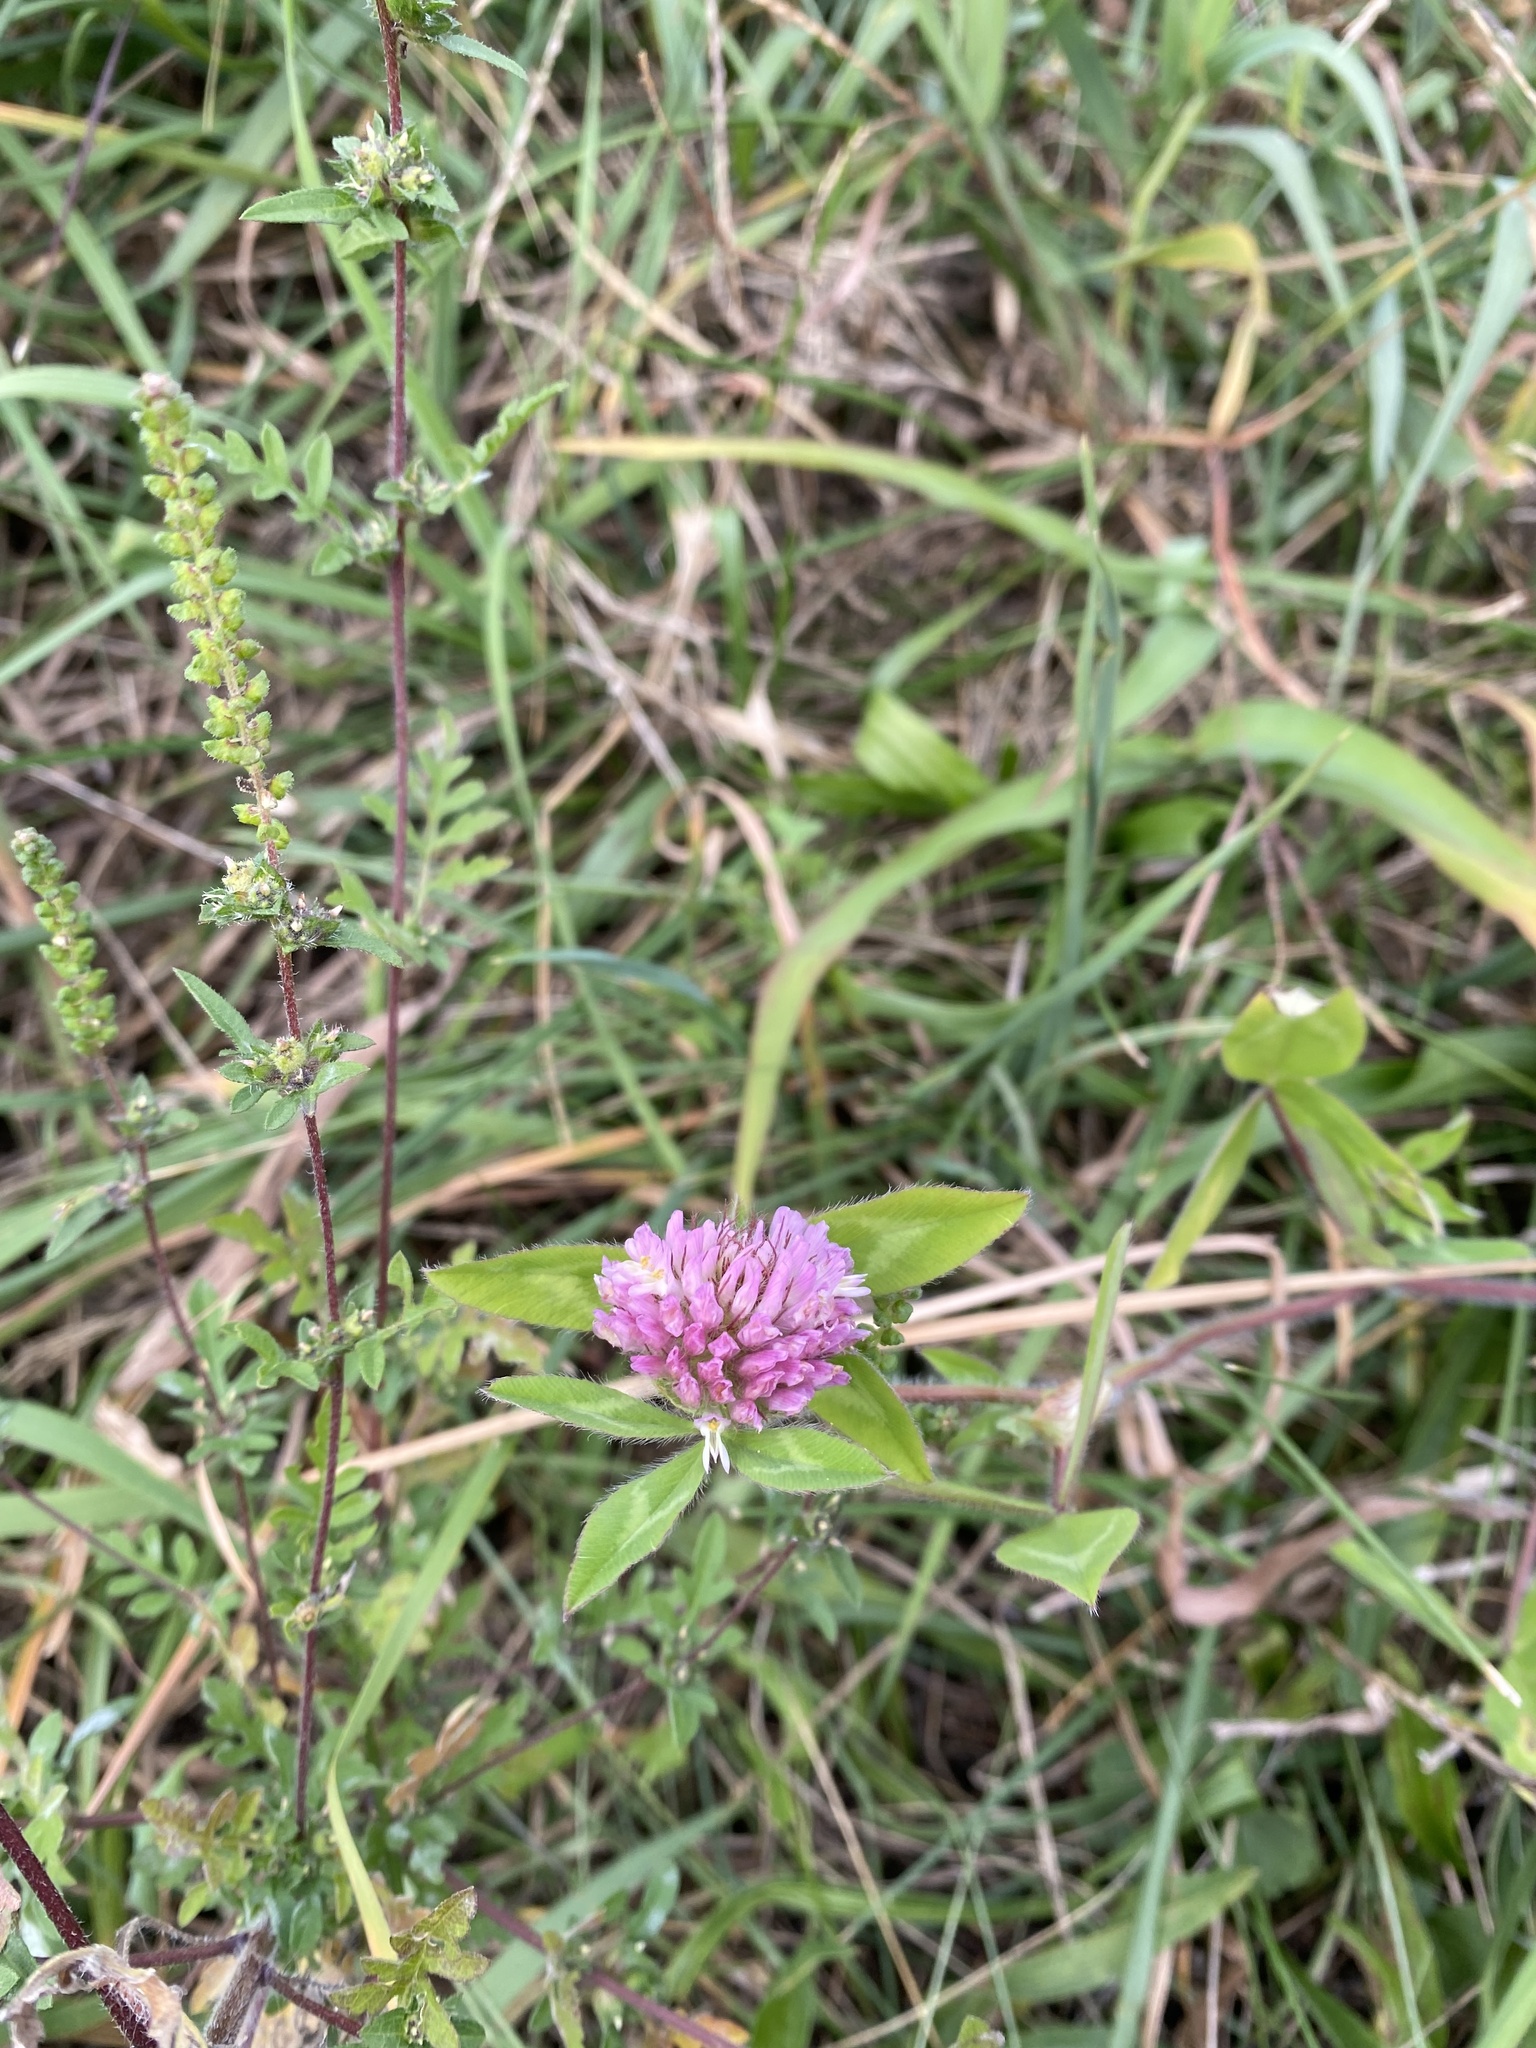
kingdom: Plantae
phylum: Tracheophyta
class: Magnoliopsida
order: Fabales
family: Fabaceae
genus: Trifolium
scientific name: Trifolium pratense
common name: Red clover
